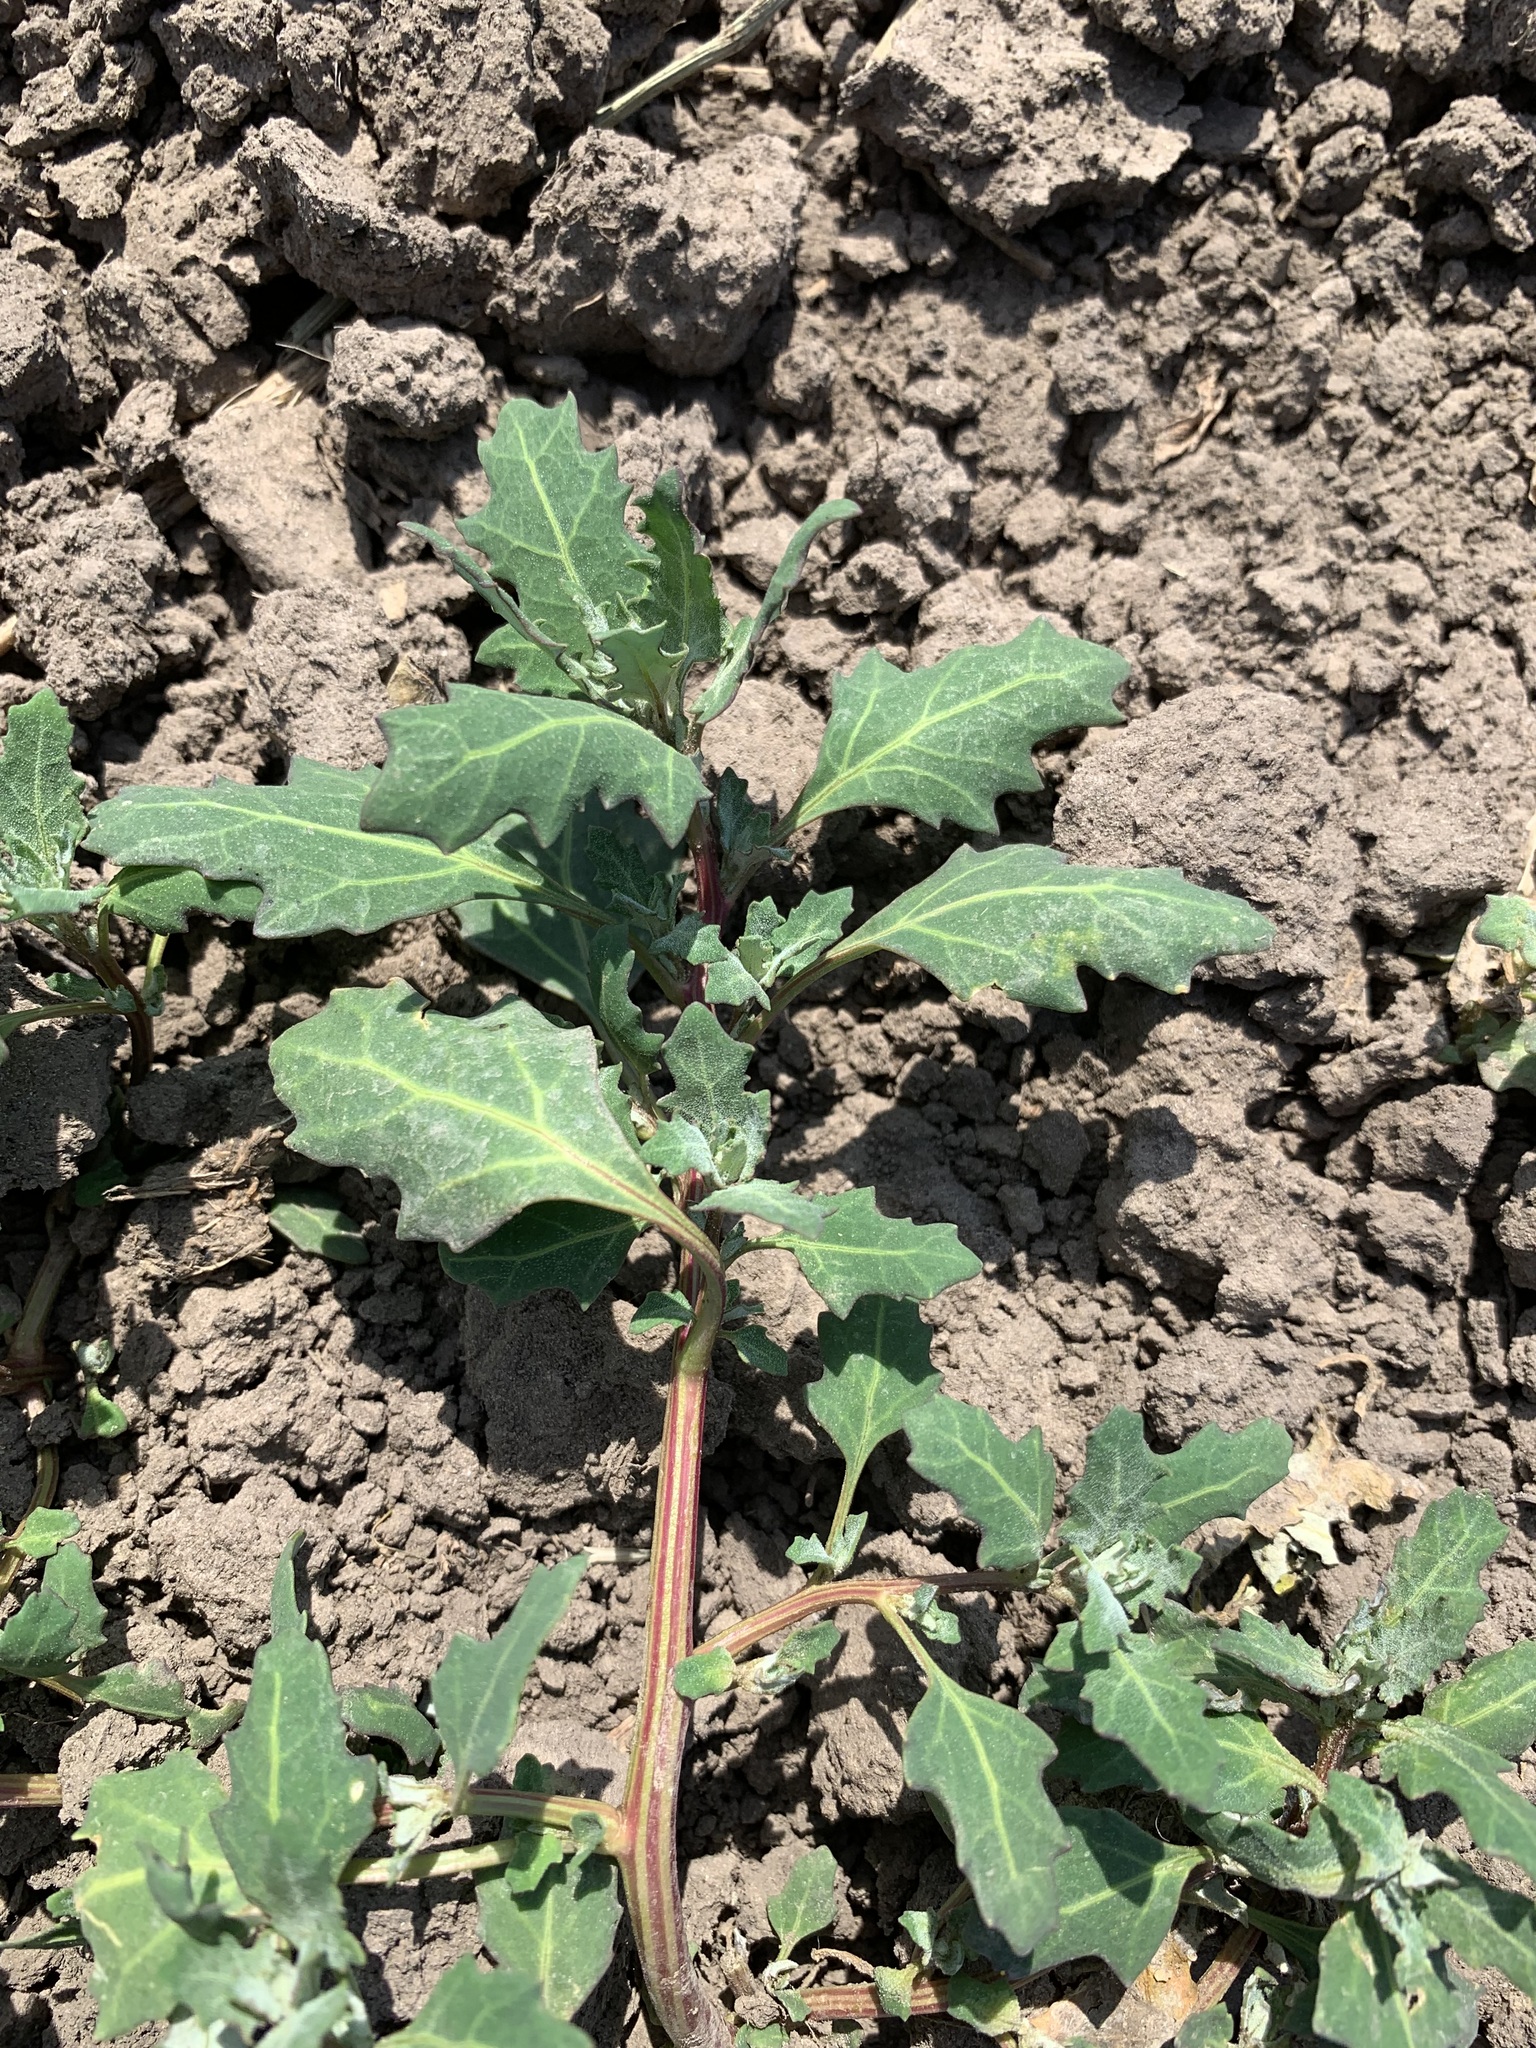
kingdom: Plantae
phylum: Tracheophyta
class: Magnoliopsida
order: Caryophyllales
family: Amaranthaceae
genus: Oxybasis
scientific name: Oxybasis glauca
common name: Glaucous goosefoot
